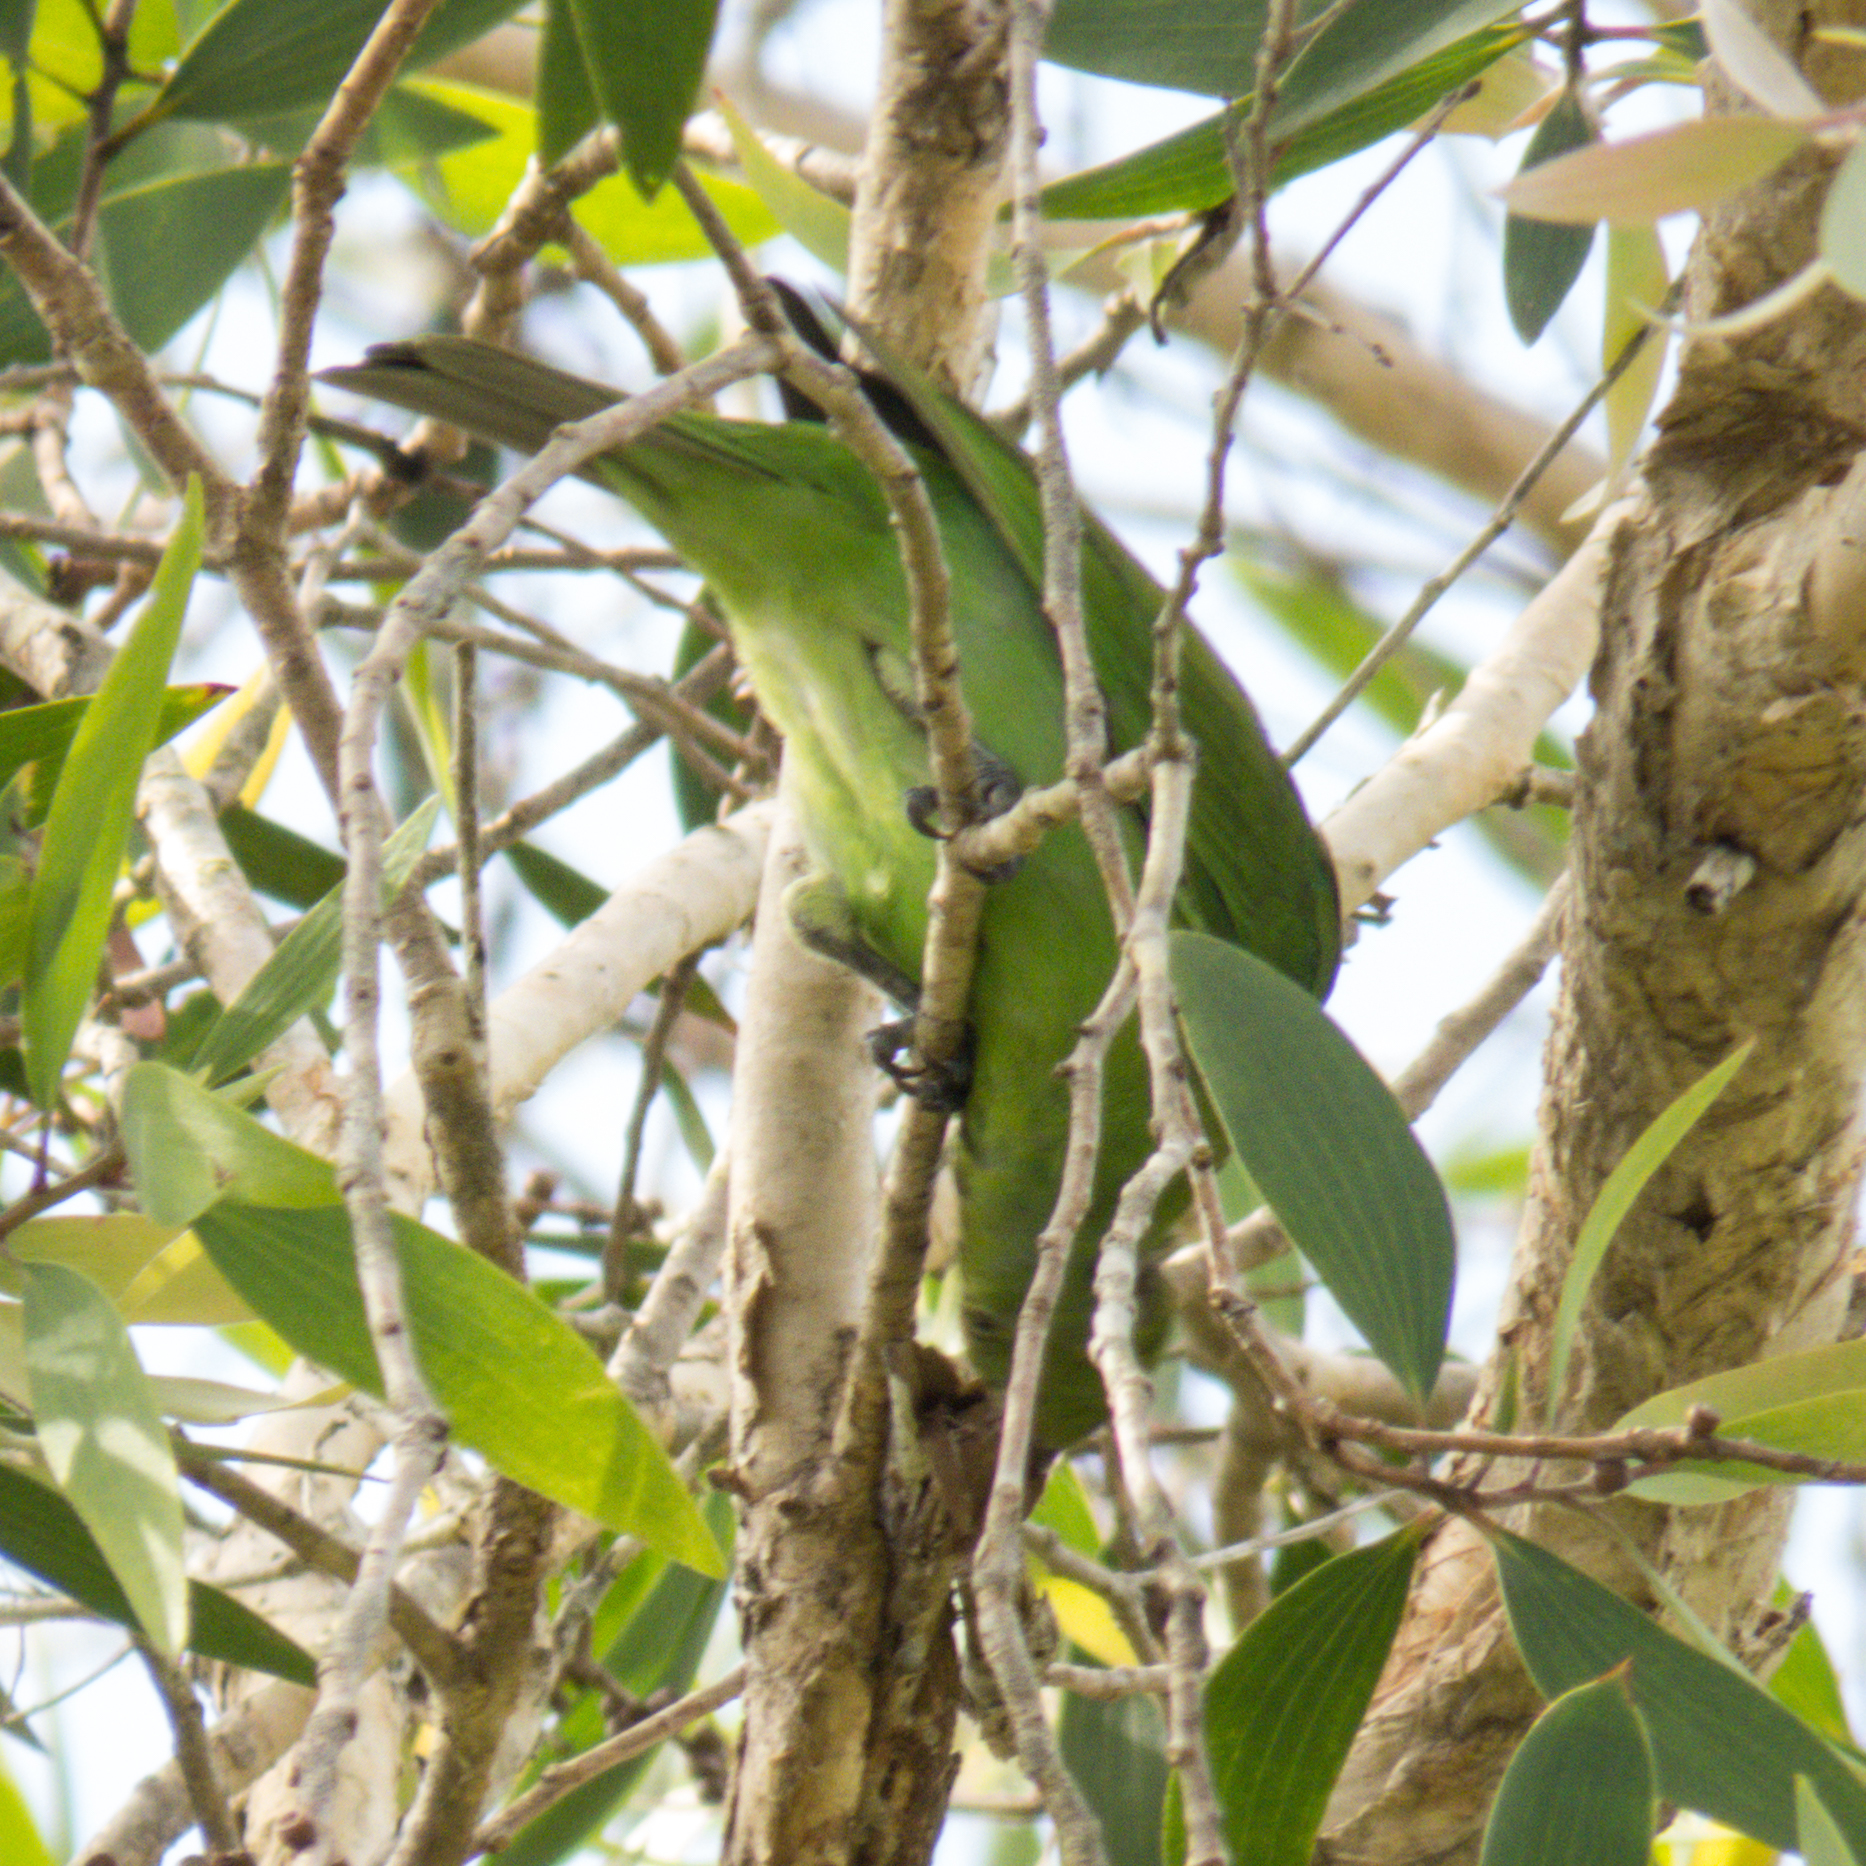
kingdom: Animalia
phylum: Chordata
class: Aves
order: Passeriformes
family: Chloropseidae
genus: Chloropsis
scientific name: Chloropsis aurifrons
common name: Golden-fronted leafbird
